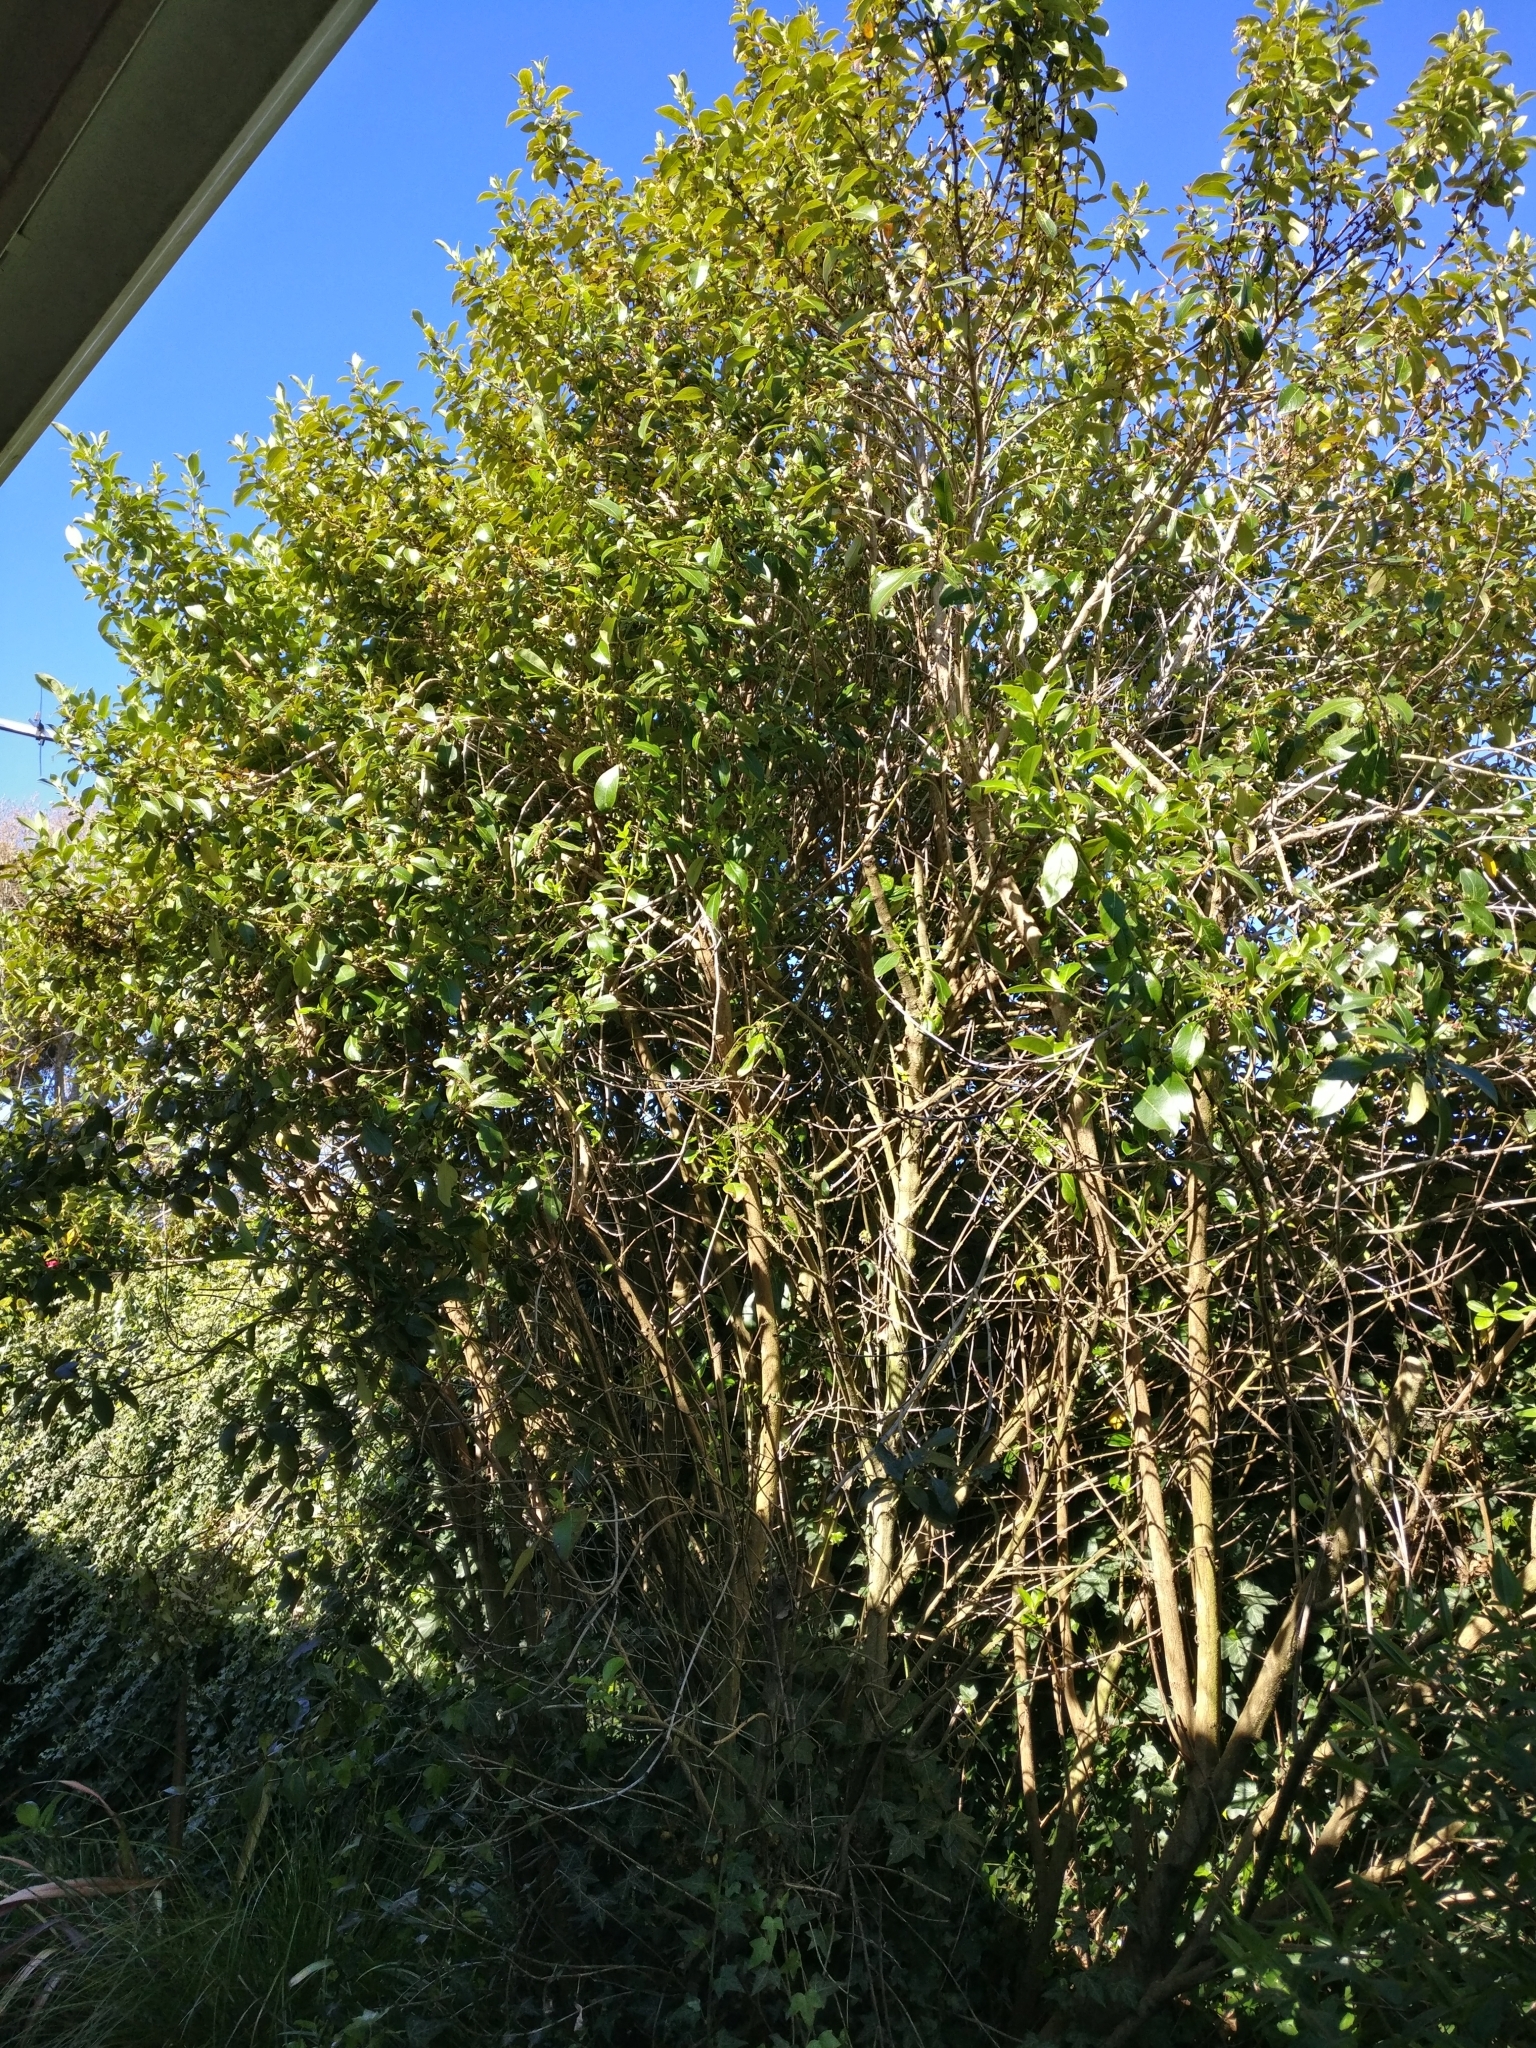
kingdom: Plantae
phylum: Tracheophyta
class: Magnoliopsida
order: Gentianales
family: Rubiaceae
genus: Coprosma
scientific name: Coprosma robusta
